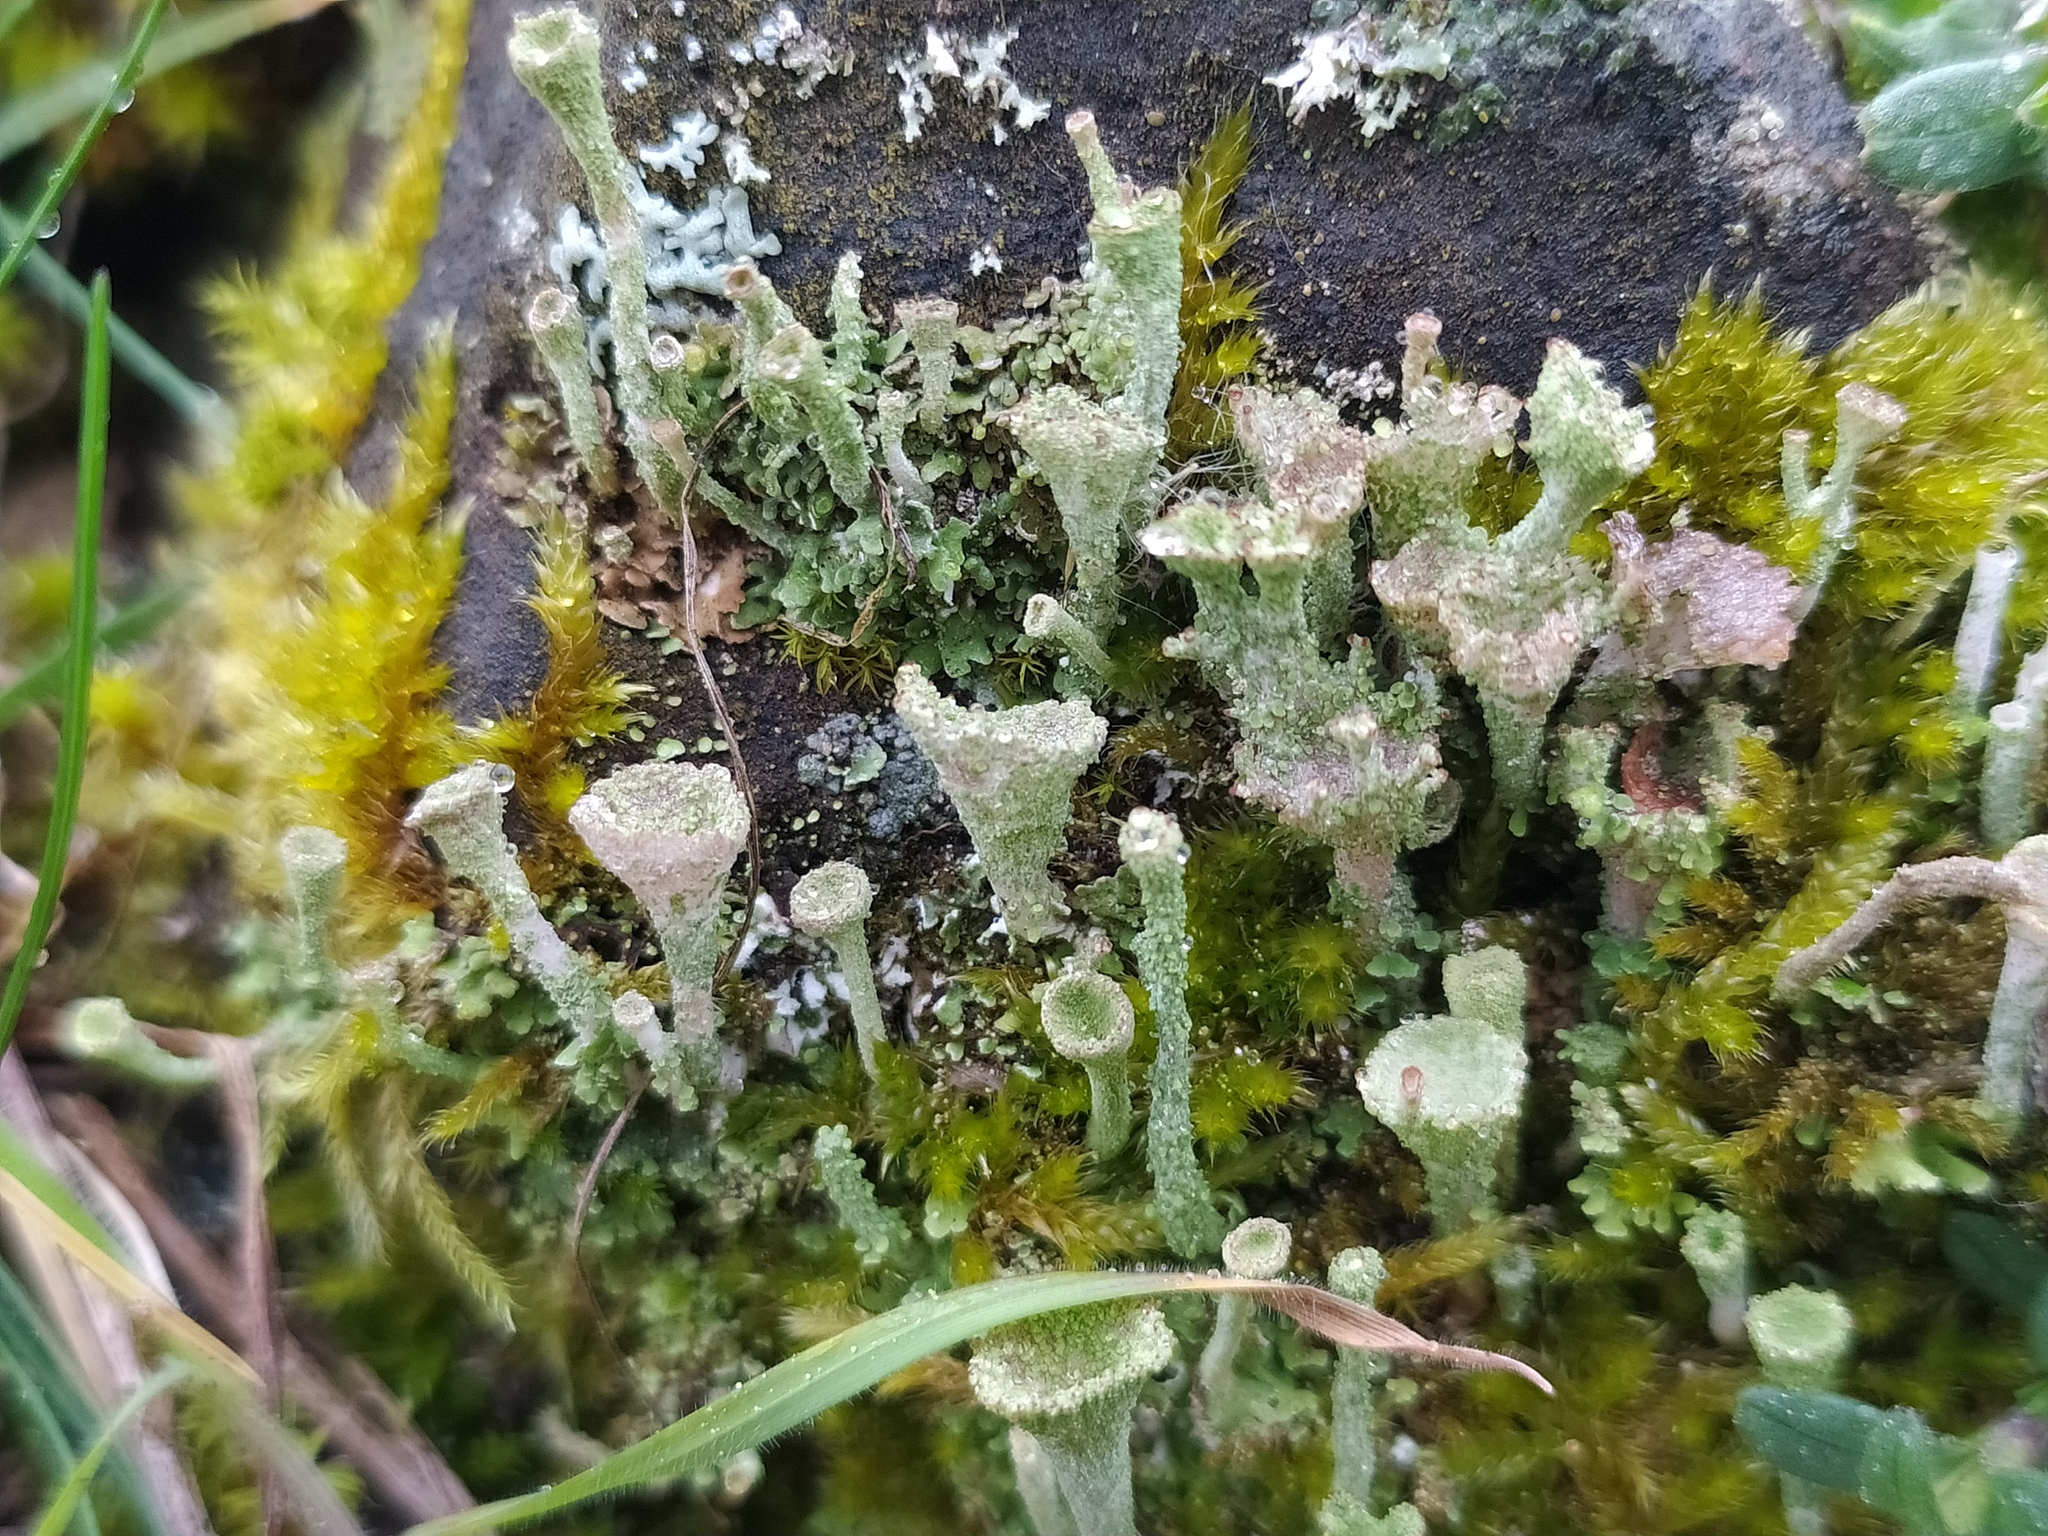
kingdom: Fungi
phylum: Ascomycota
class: Lecanoromycetes
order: Lecanorales
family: Cladoniaceae
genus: Cladonia
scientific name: Cladonia
